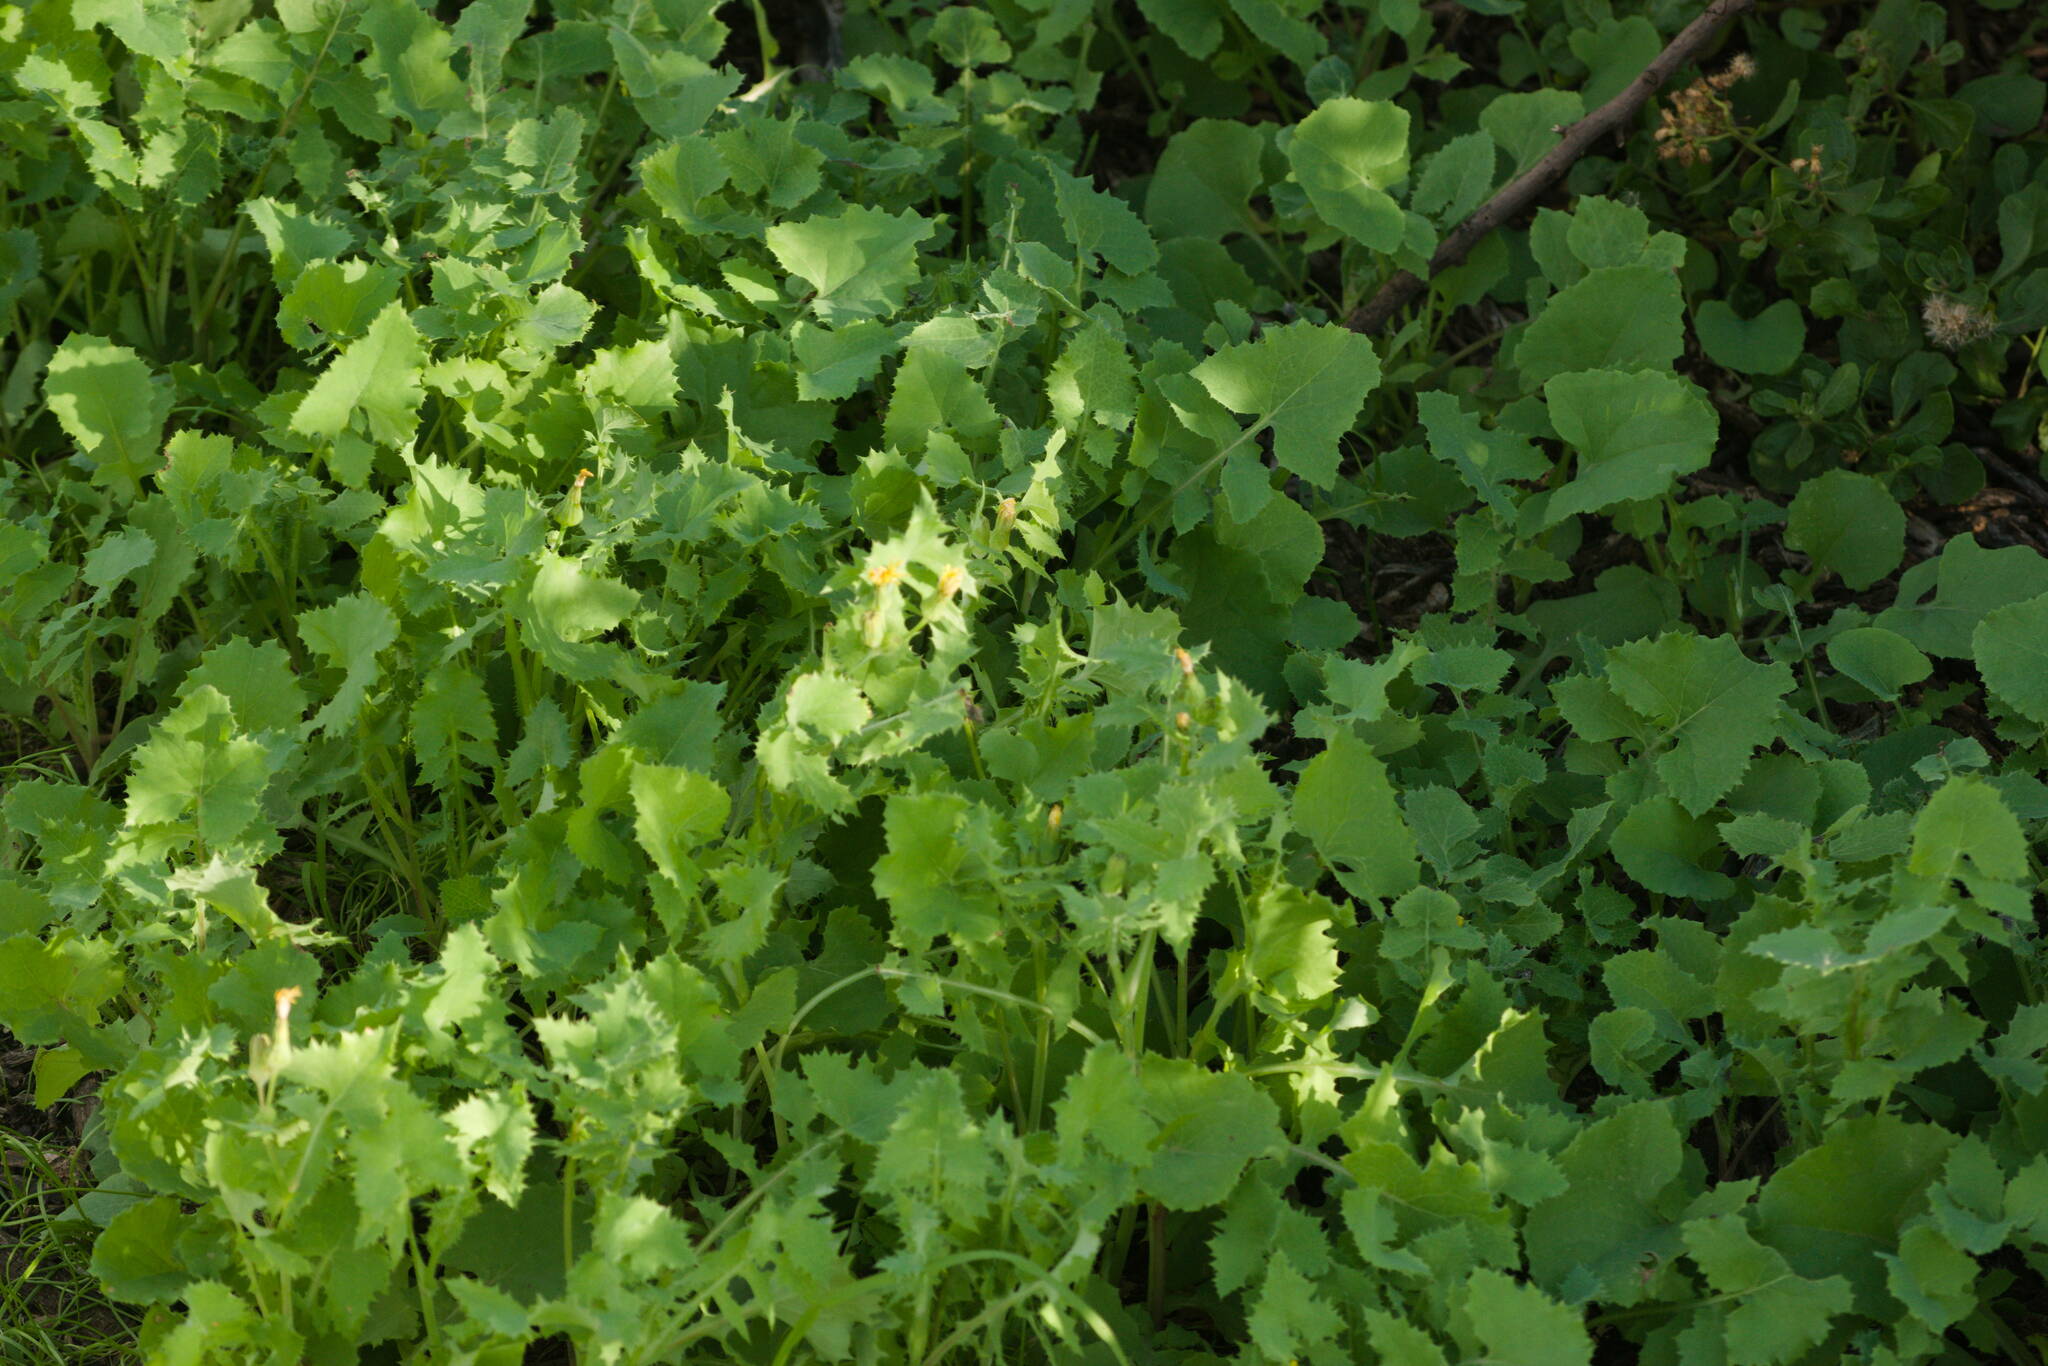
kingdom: Plantae
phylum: Tracheophyta
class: Magnoliopsida
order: Asterales
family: Asteraceae
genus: Sonchus
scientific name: Sonchus oleraceus
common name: Common sowthistle
